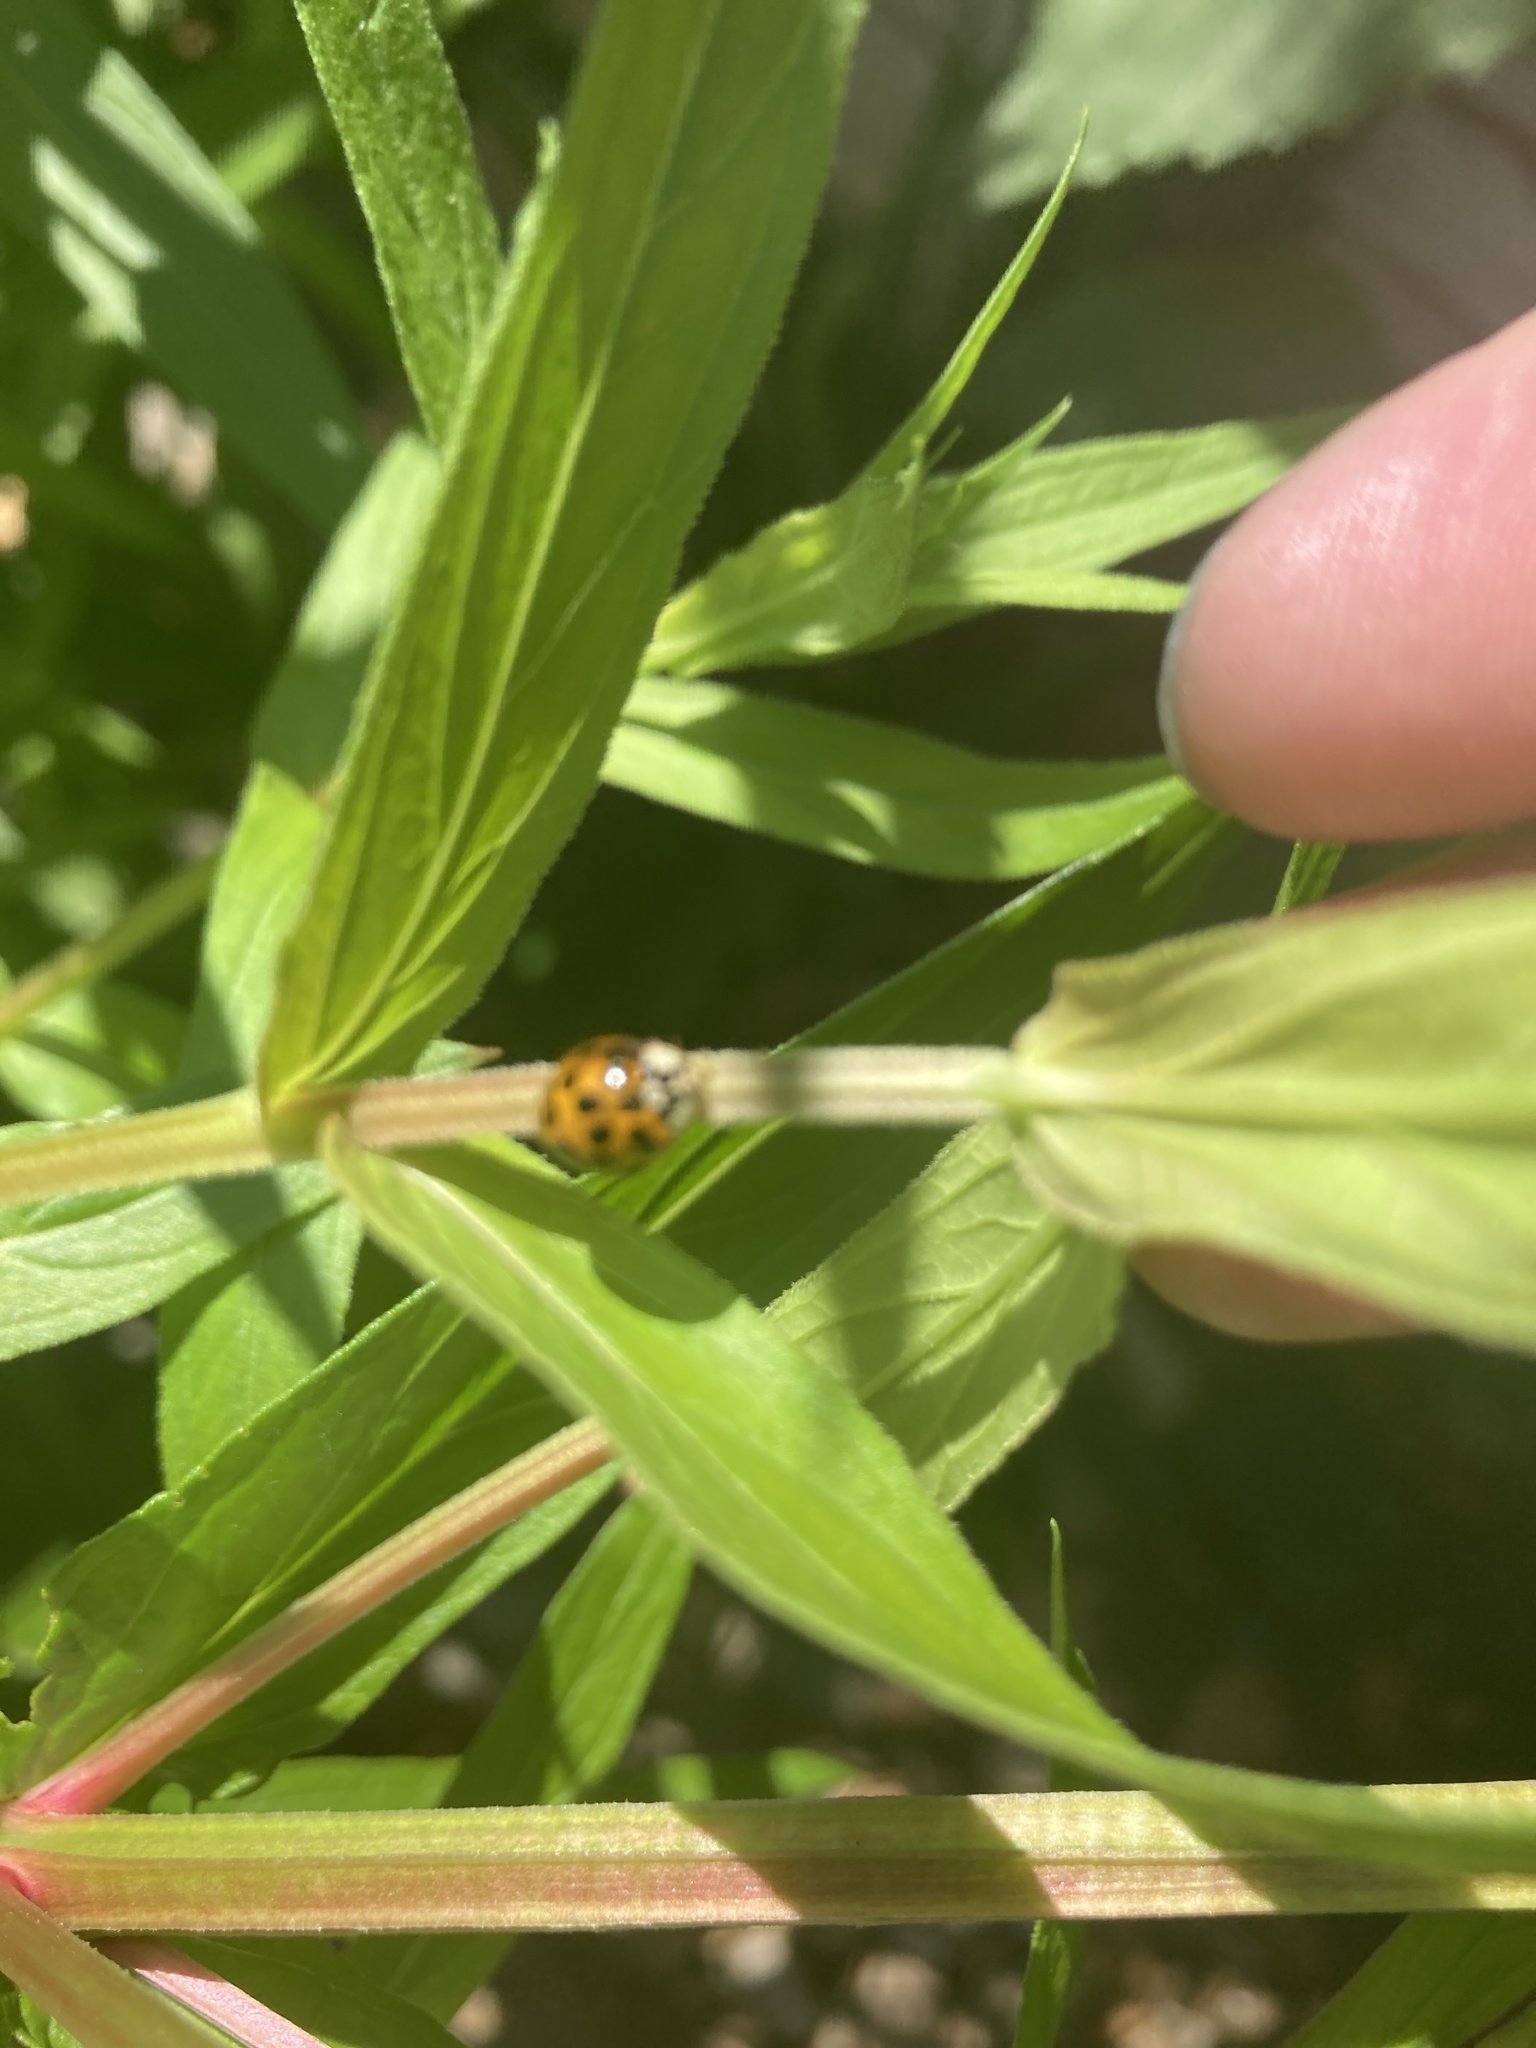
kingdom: Animalia
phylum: Arthropoda
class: Insecta
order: Coleoptera
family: Coccinellidae
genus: Harmonia
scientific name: Harmonia axyridis
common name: Harlequin ladybird
